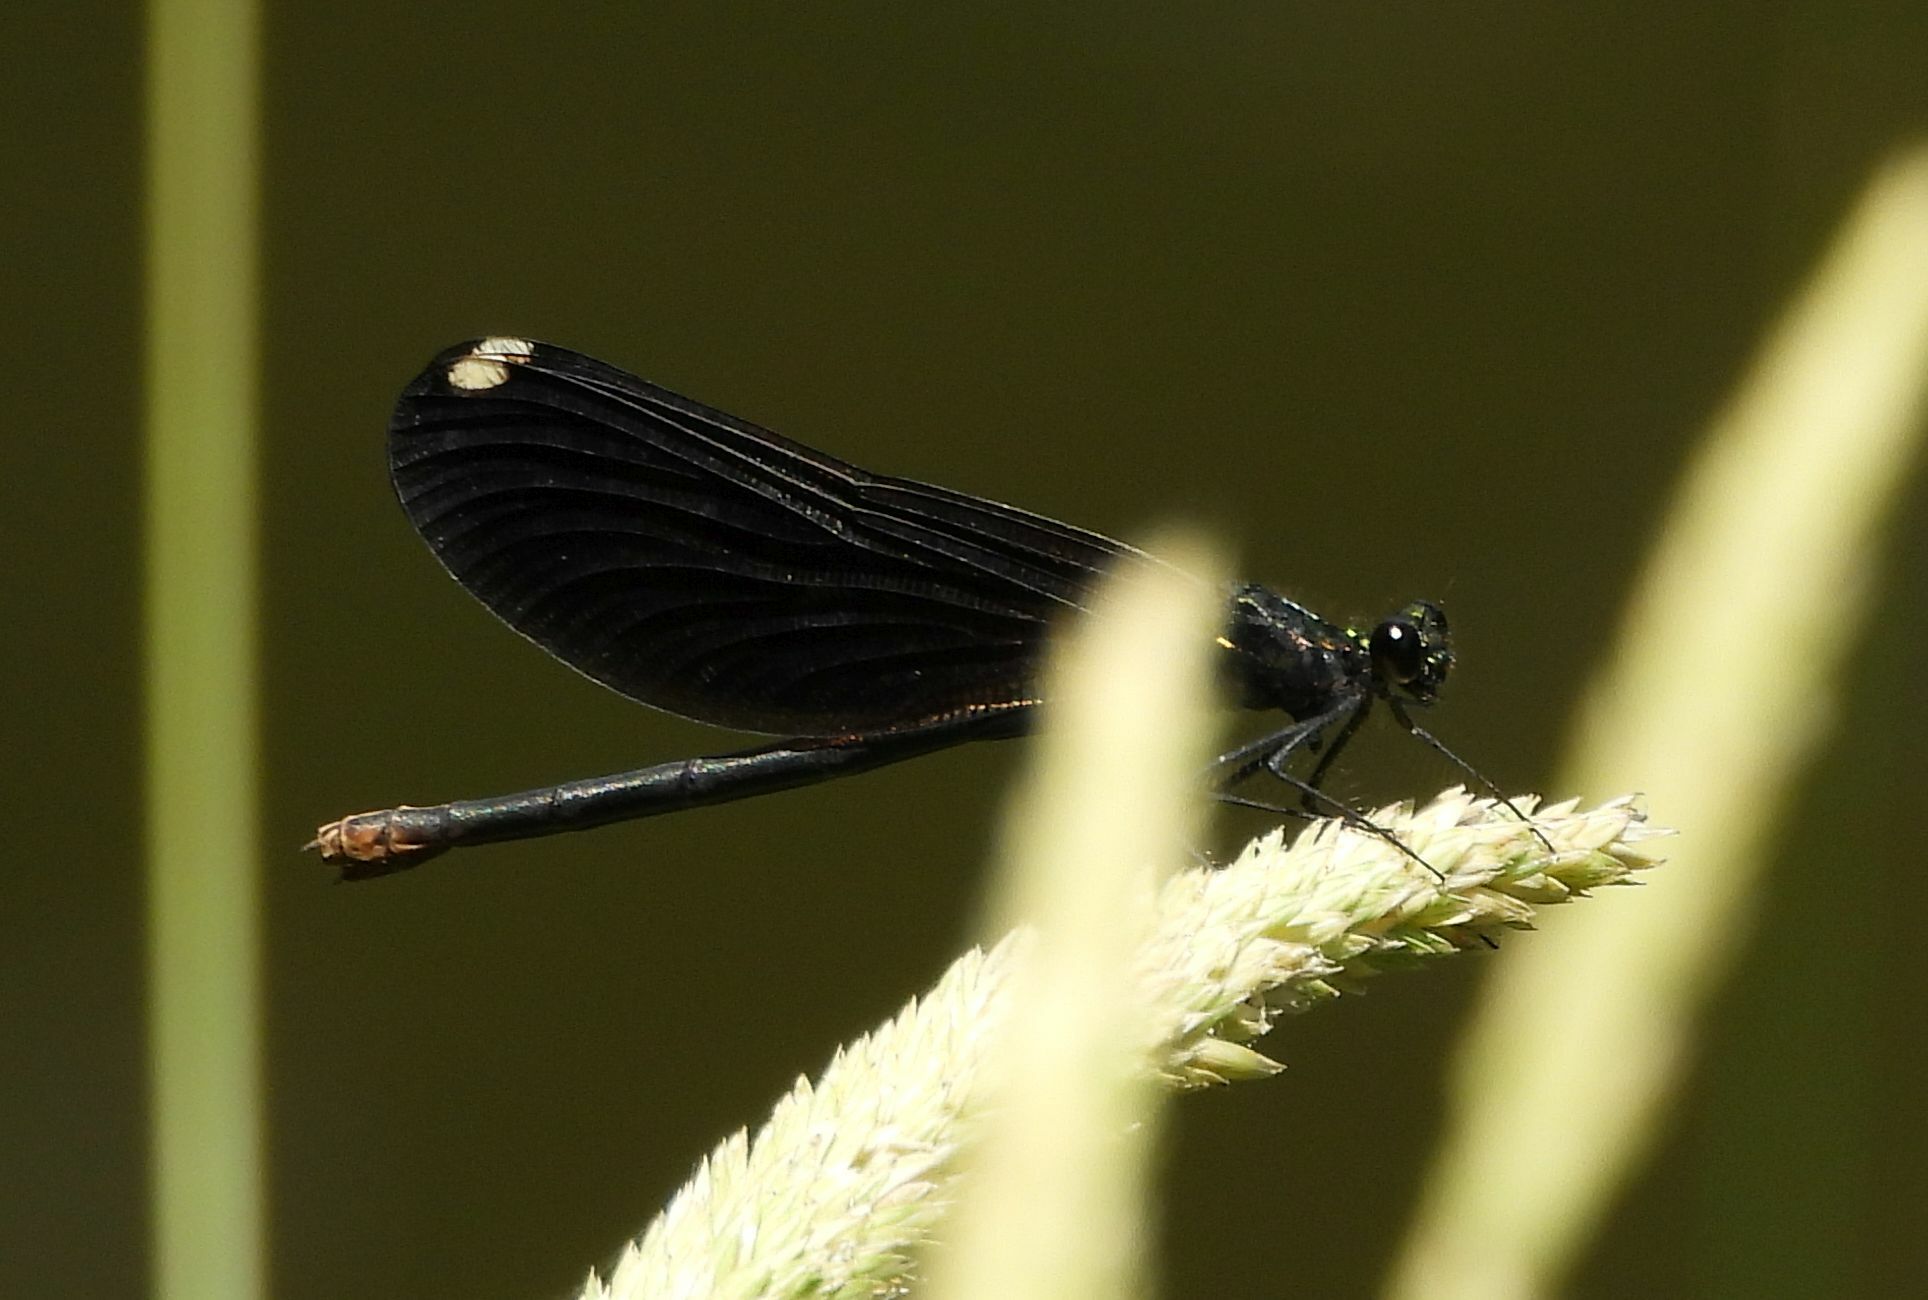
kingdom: Animalia
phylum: Arthropoda
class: Insecta
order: Odonata
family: Calopterygidae
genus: Calopteryx
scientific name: Calopteryx maculata
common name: Ebony jewelwing
